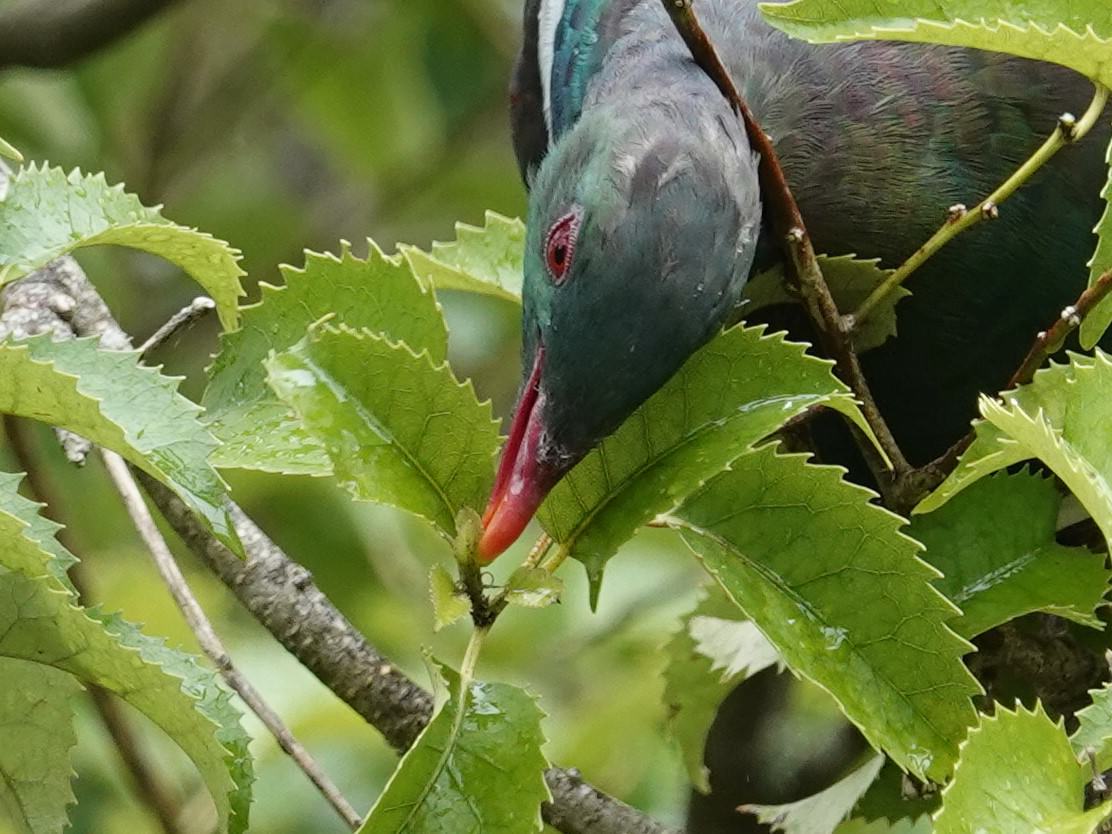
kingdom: Animalia
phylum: Chordata
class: Aves
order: Columbiformes
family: Columbidae
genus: Hemiphaga
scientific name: Hemiphaga novaeseelandiae
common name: New zealand pigeon
